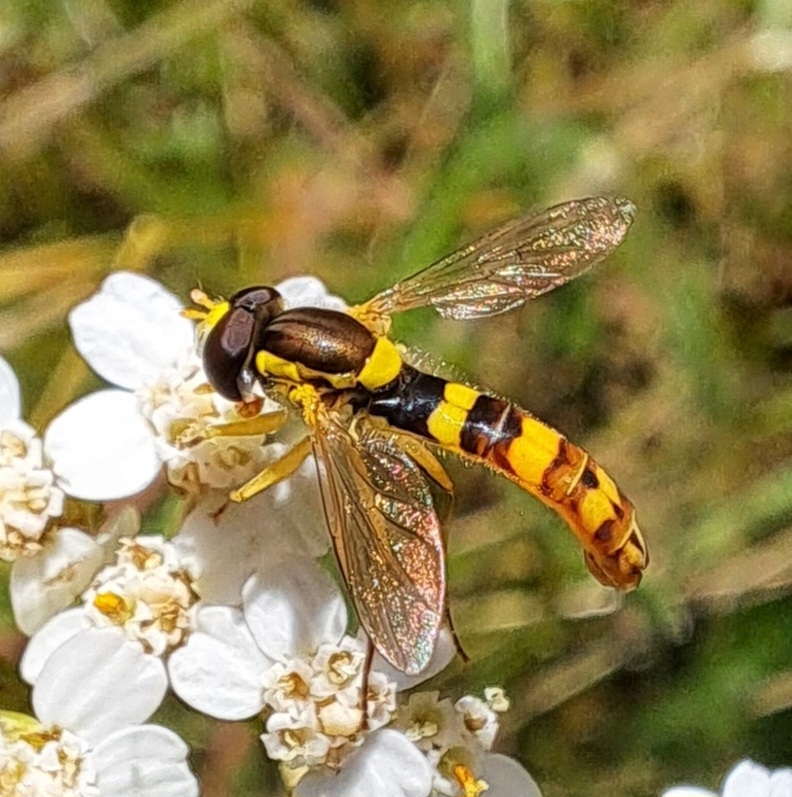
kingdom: Animalia
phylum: Arthropoda
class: Insecta
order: Diptera
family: Syrphidae
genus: Sphaerophoria
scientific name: Sphaerophoria scripta
